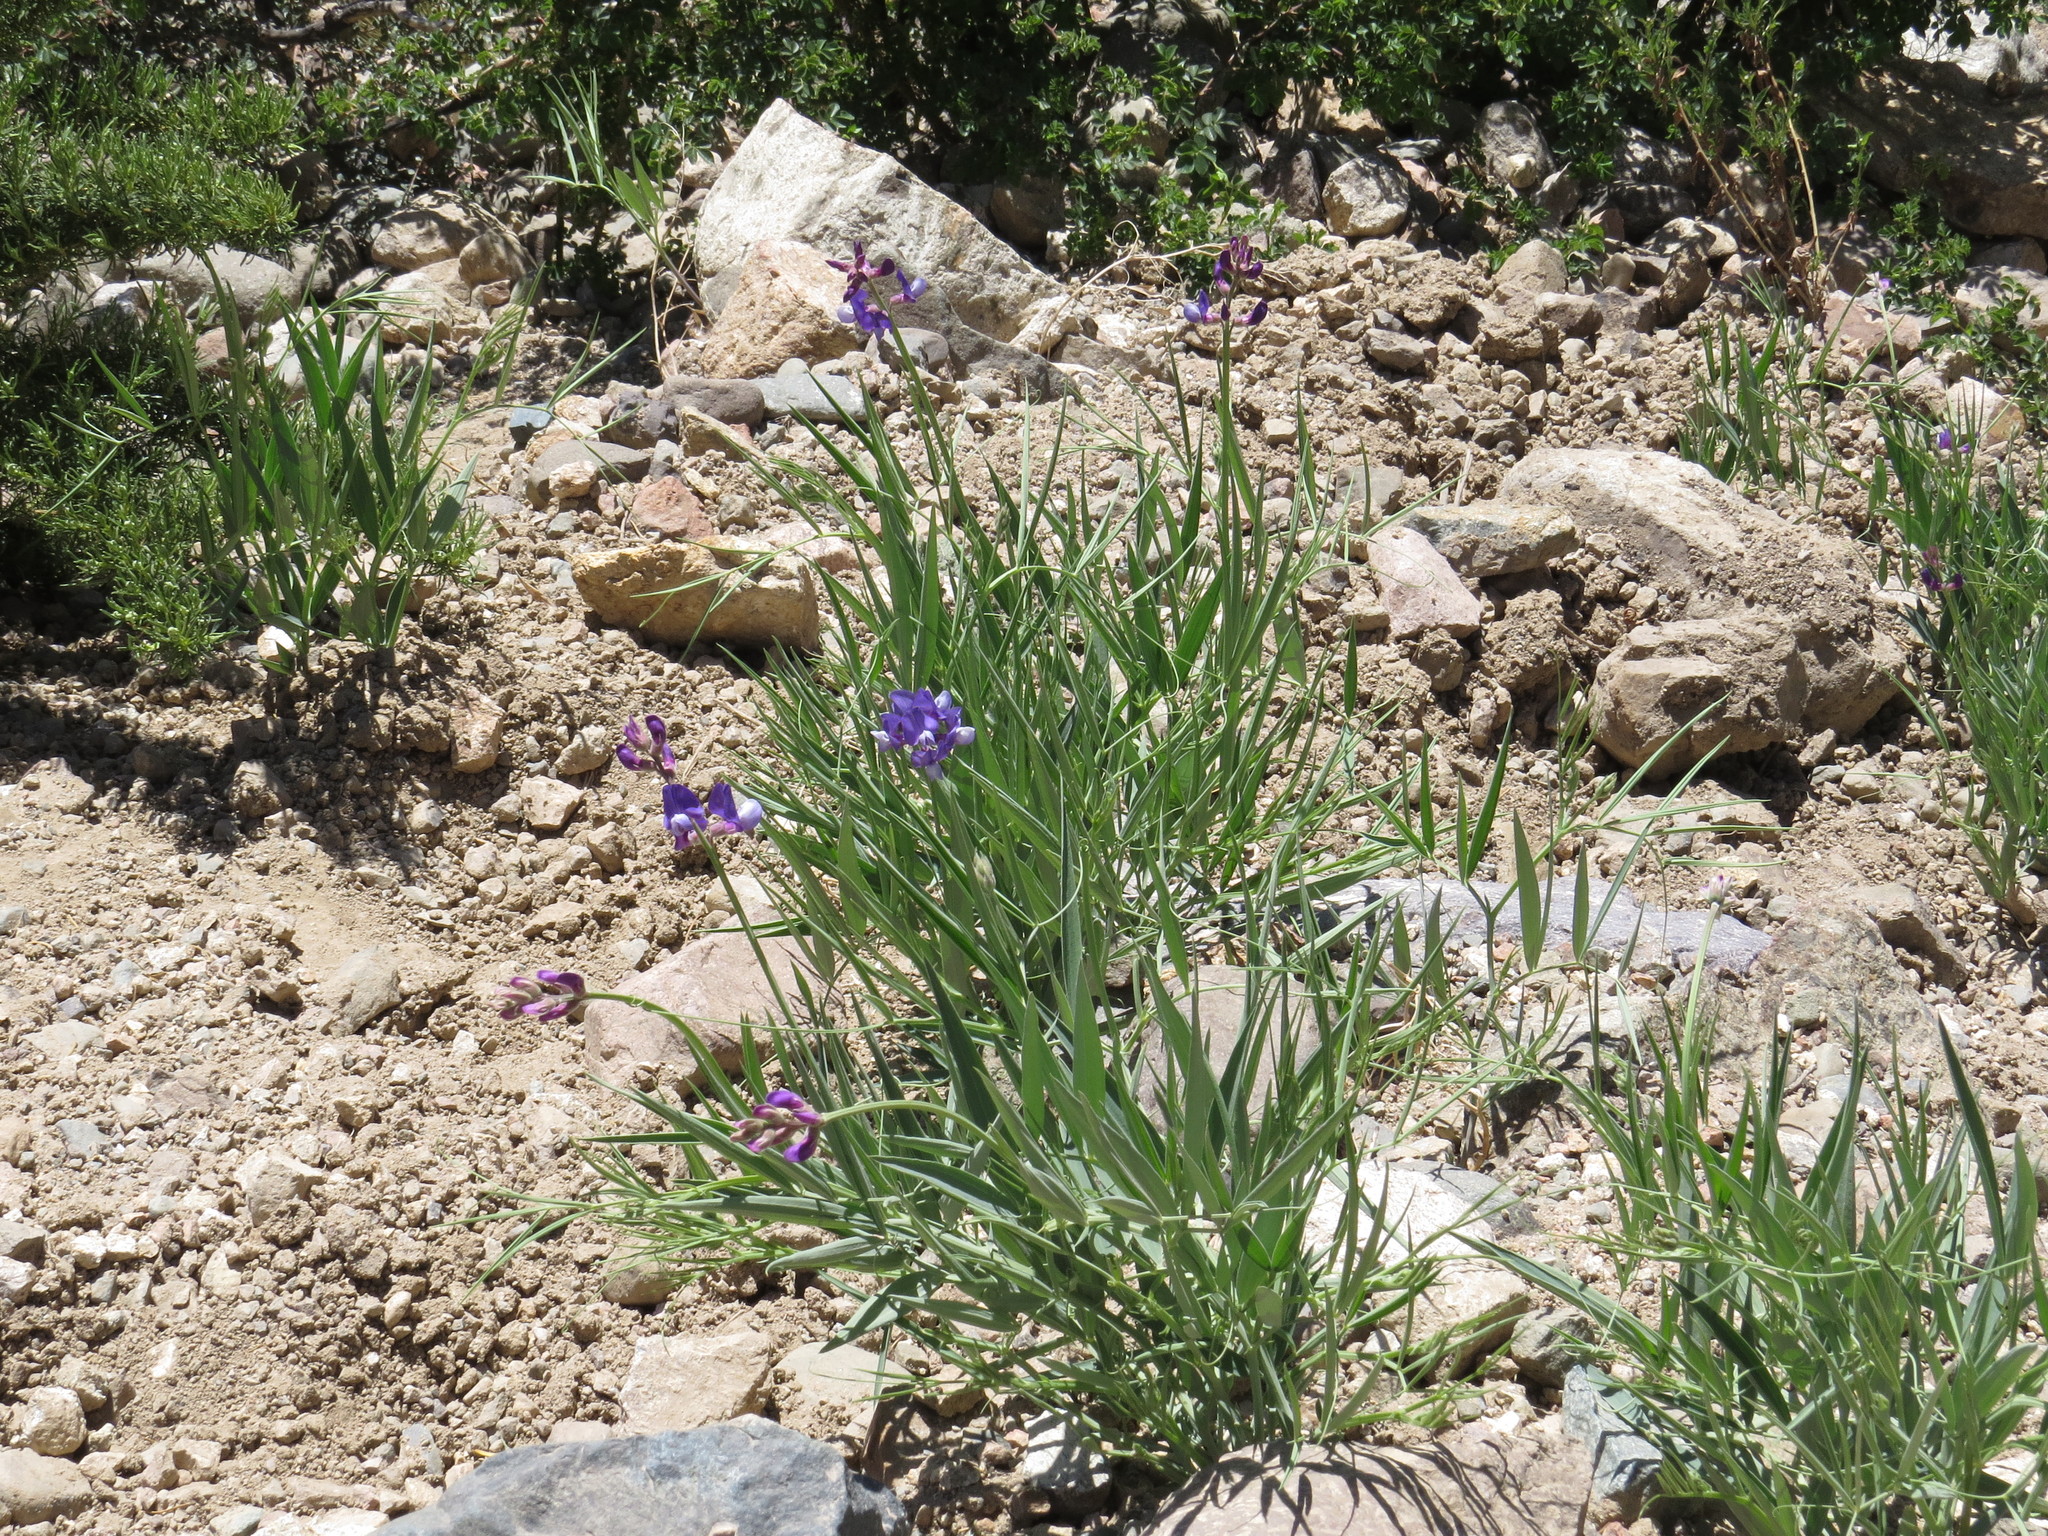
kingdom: Plantae
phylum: Tracheophyta
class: Magnoliopsida
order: Fabales
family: Fabaceae
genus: Lathyrus
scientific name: Lathyrus magellanicus
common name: Lord anson's pea
